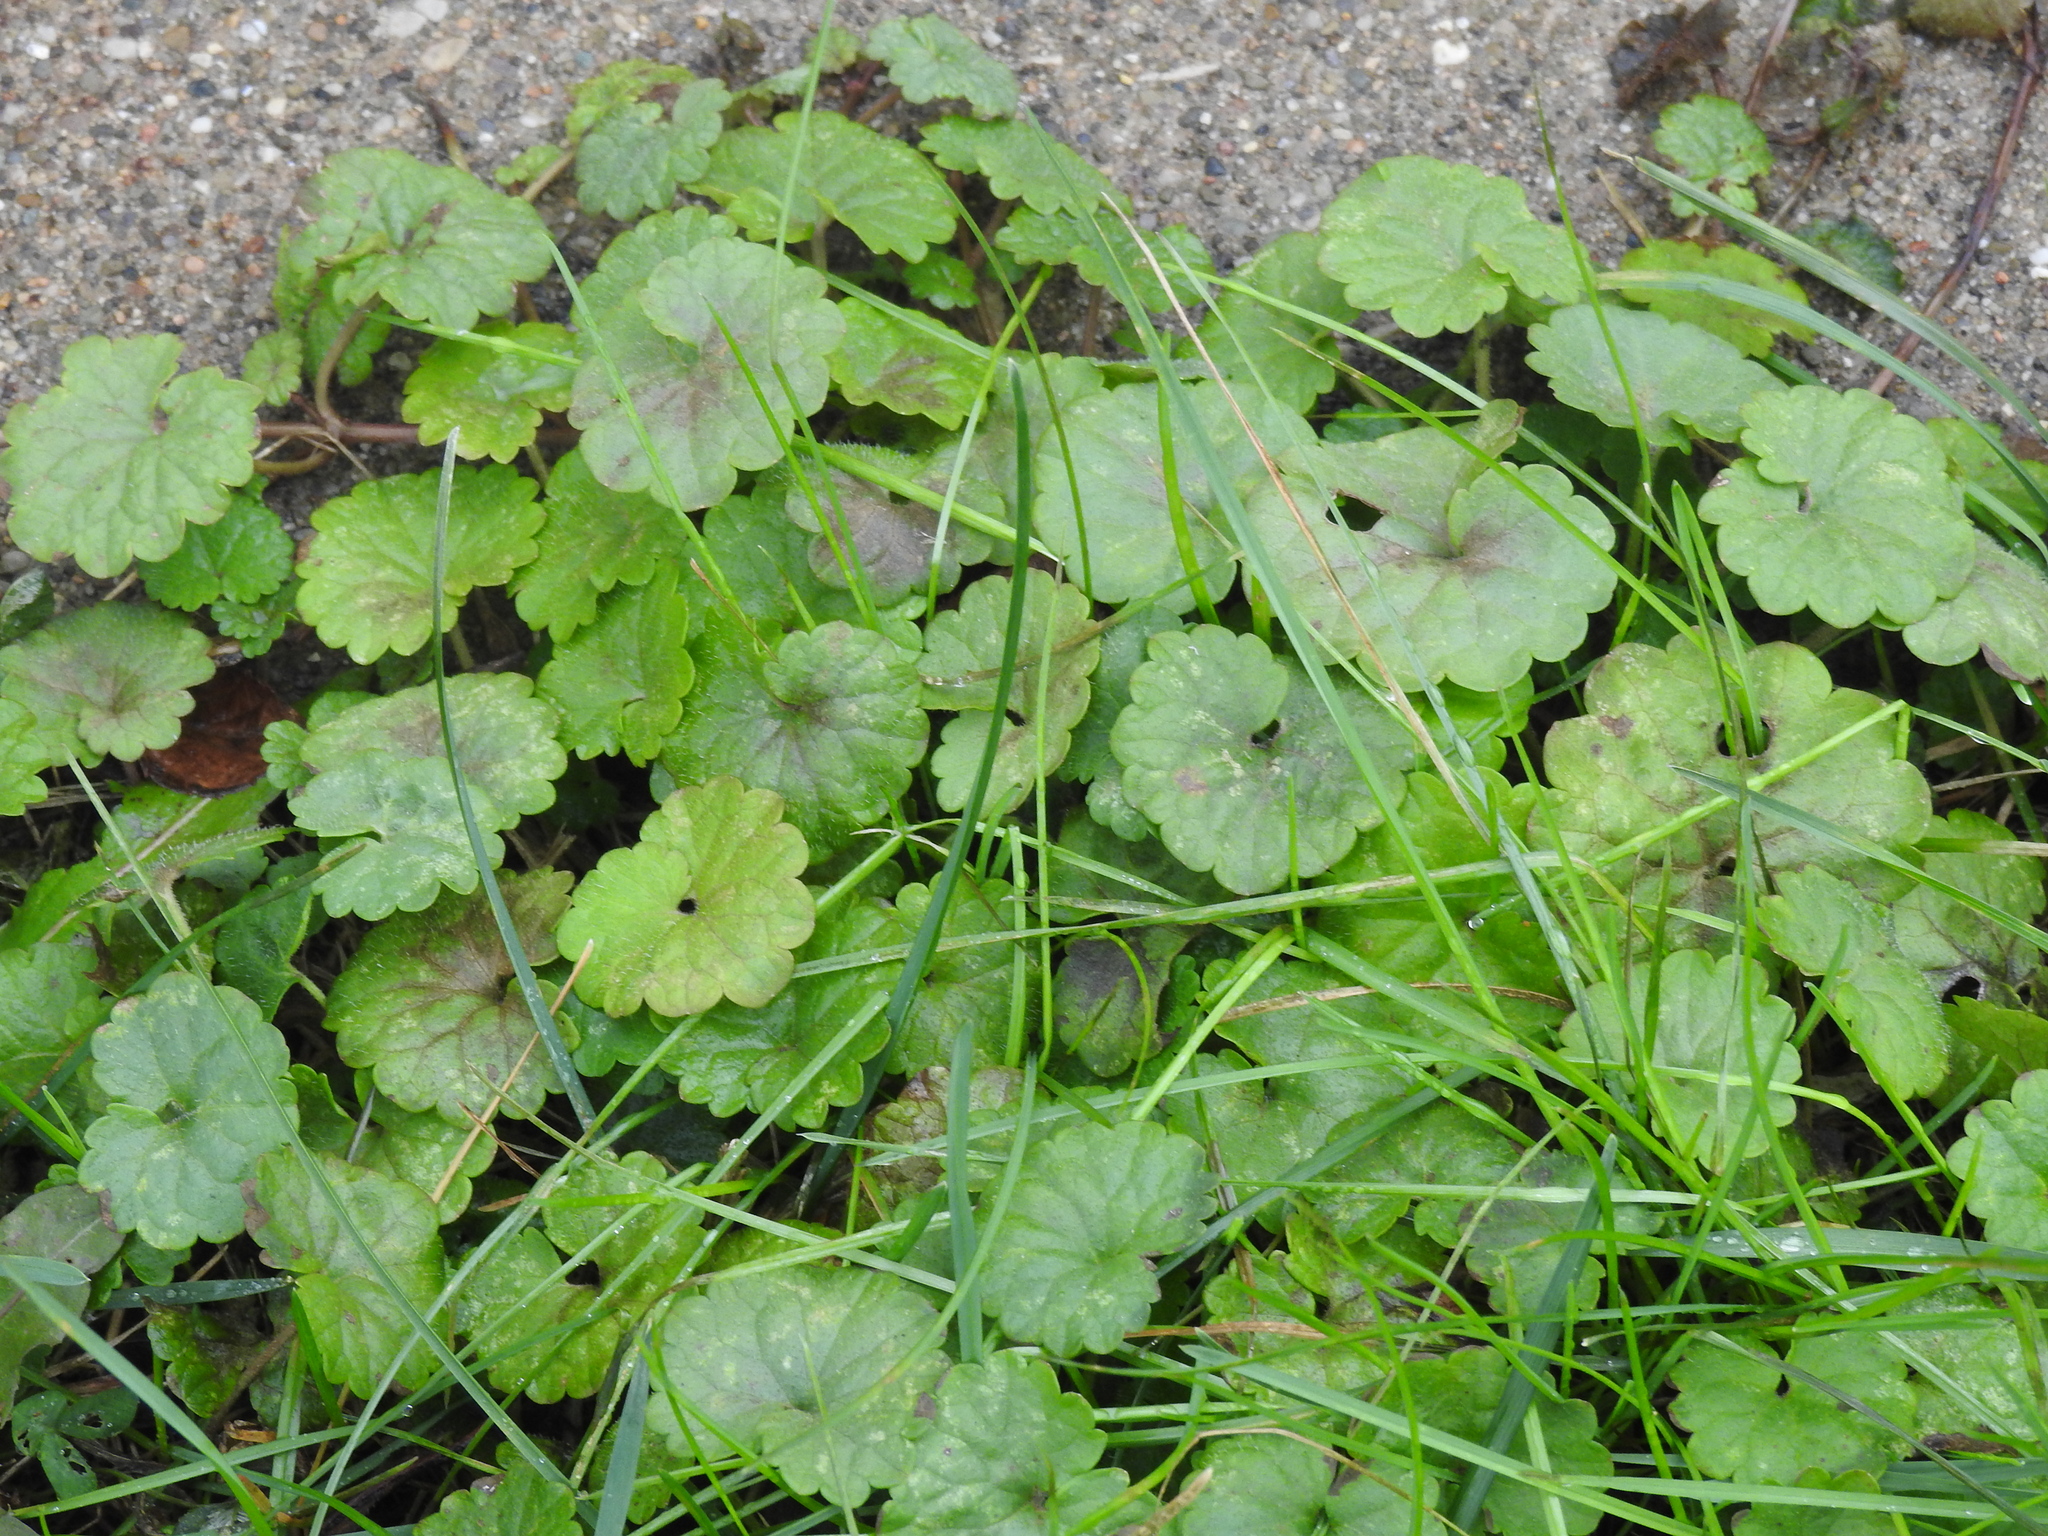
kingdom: Plantae
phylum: Tracheophyta
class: Magnoliopsida
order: Lamiales
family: Lamiaceae
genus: Glechoma
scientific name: Glechoma hederacea
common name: Ground ivy
